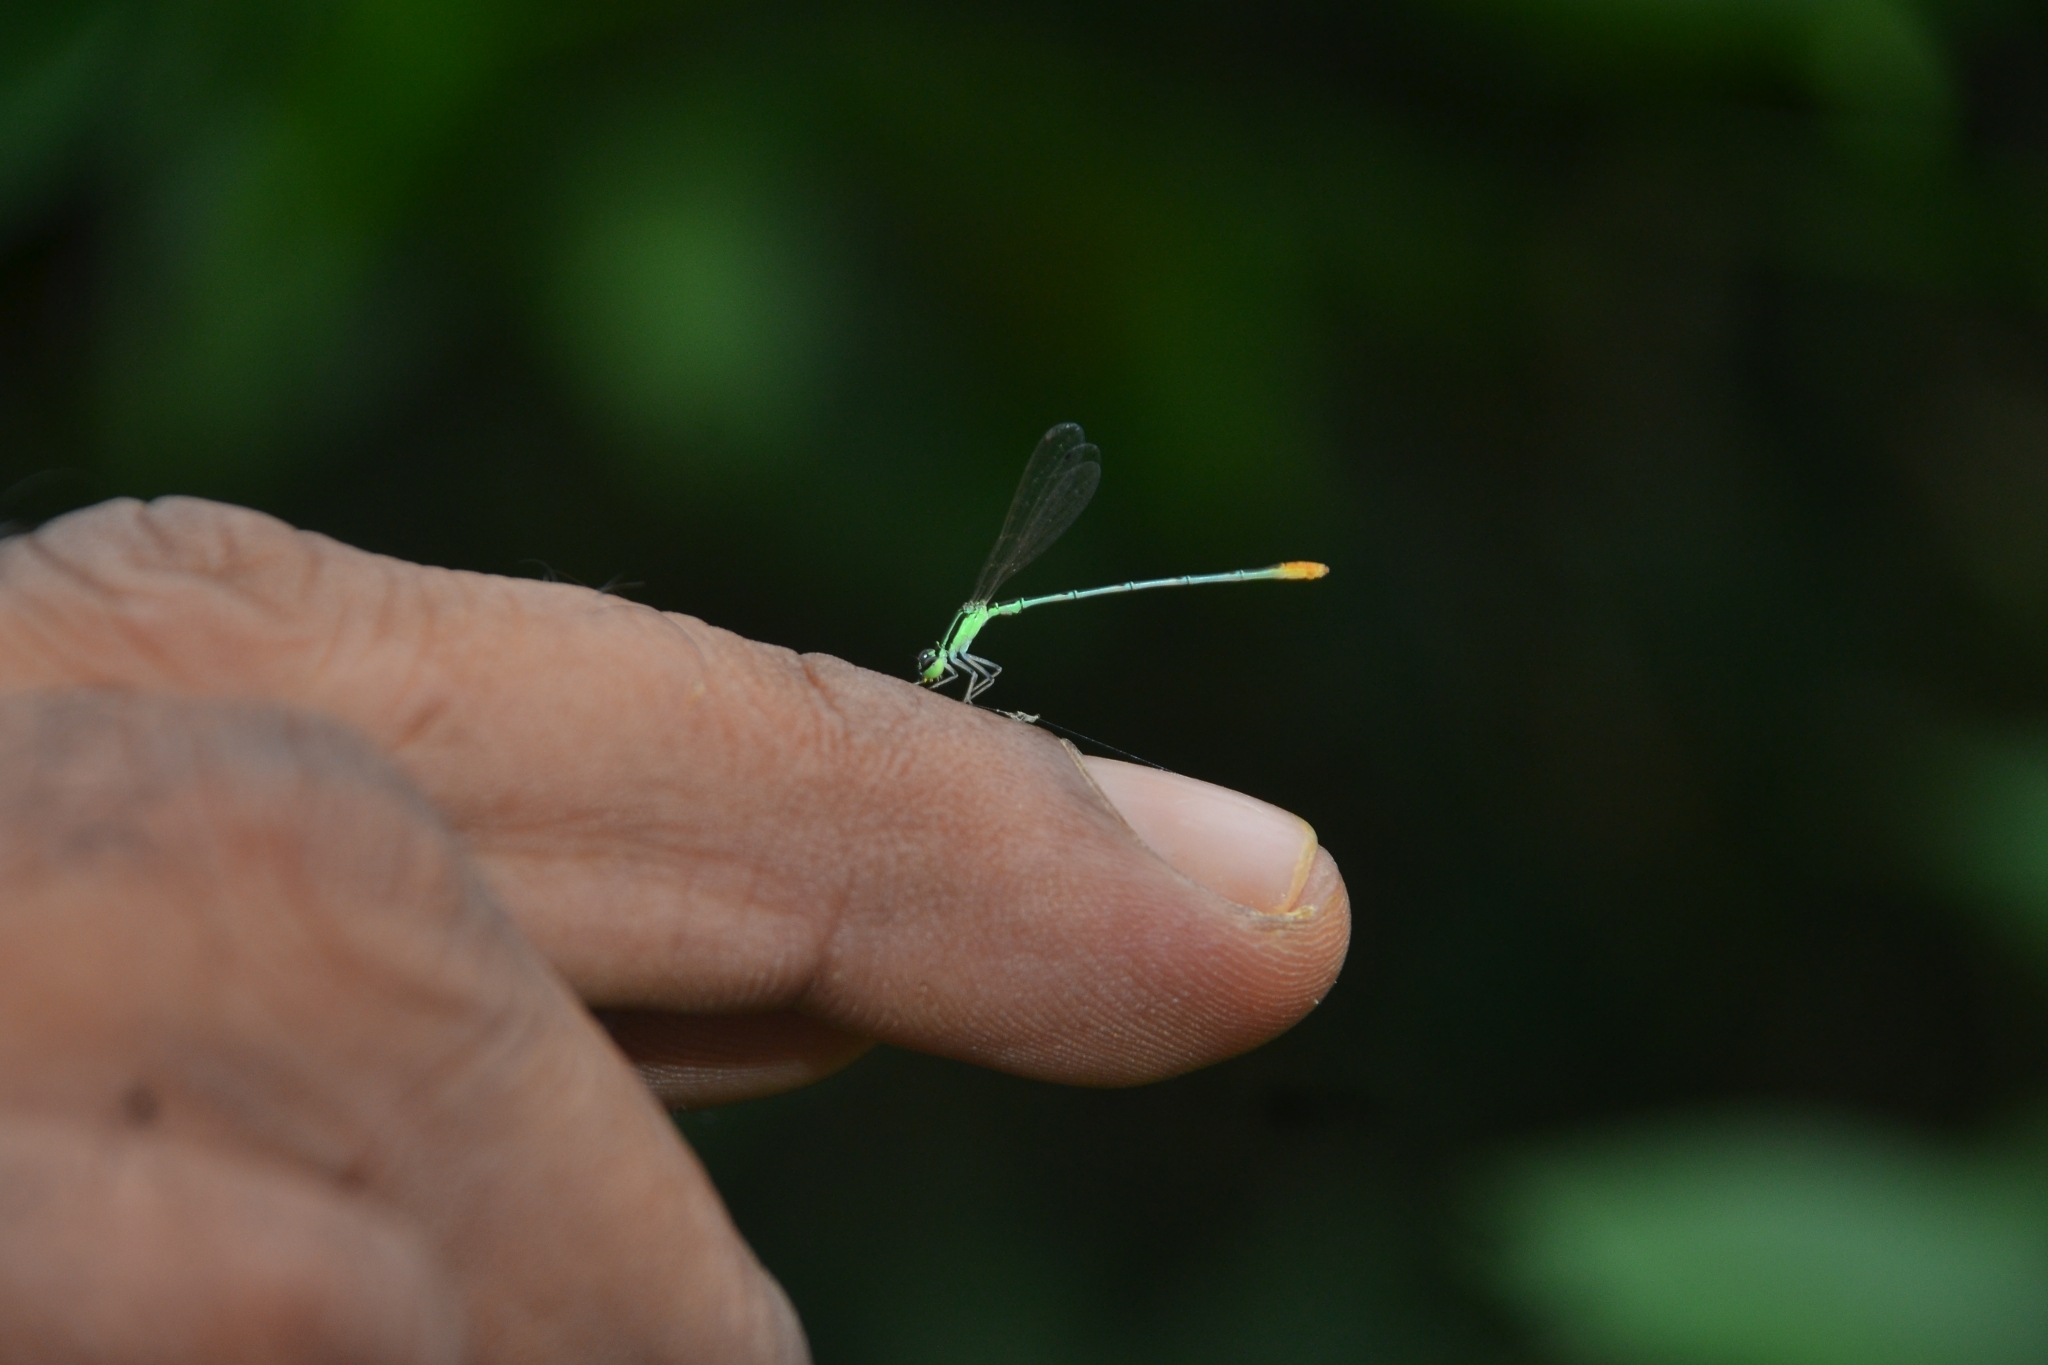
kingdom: Animalia
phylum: Arthropoda
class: Insecta
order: Odonata
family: Coenagrionidae
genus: Agriocnemis
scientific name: Agriocnemis pygmaea
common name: Pygmy wisp
